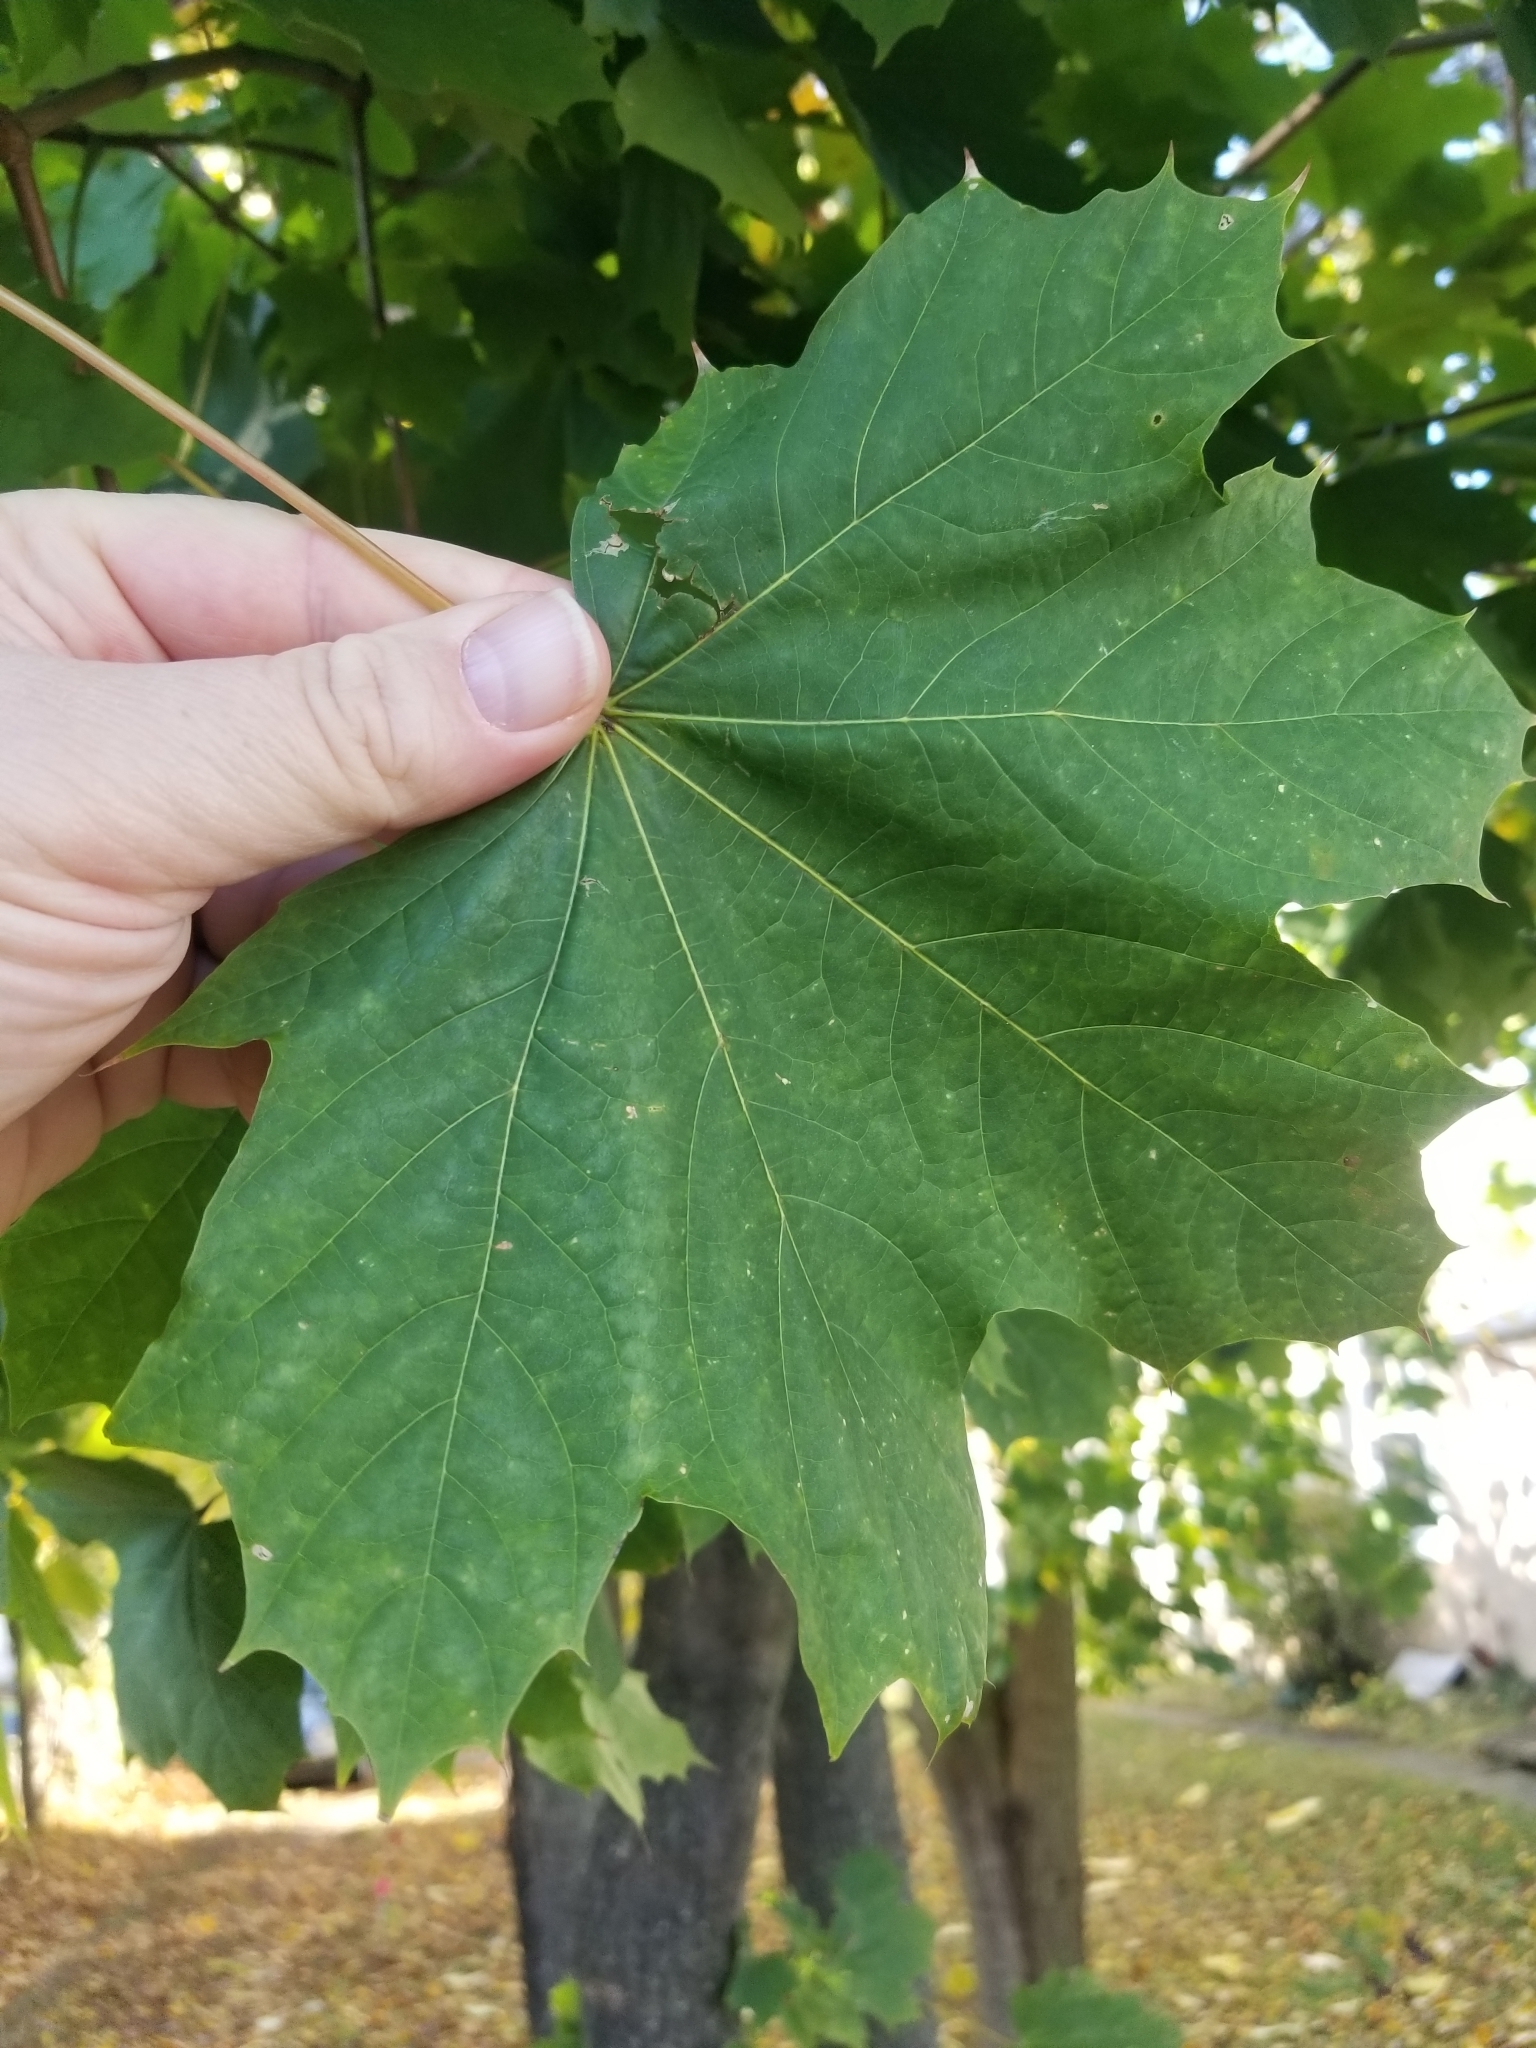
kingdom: Plantae
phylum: Tracheophyta
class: Magnoliopsida
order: Sapindales
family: Sapindaceae
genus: Acer
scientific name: Acer platanoides
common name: Norway maple
